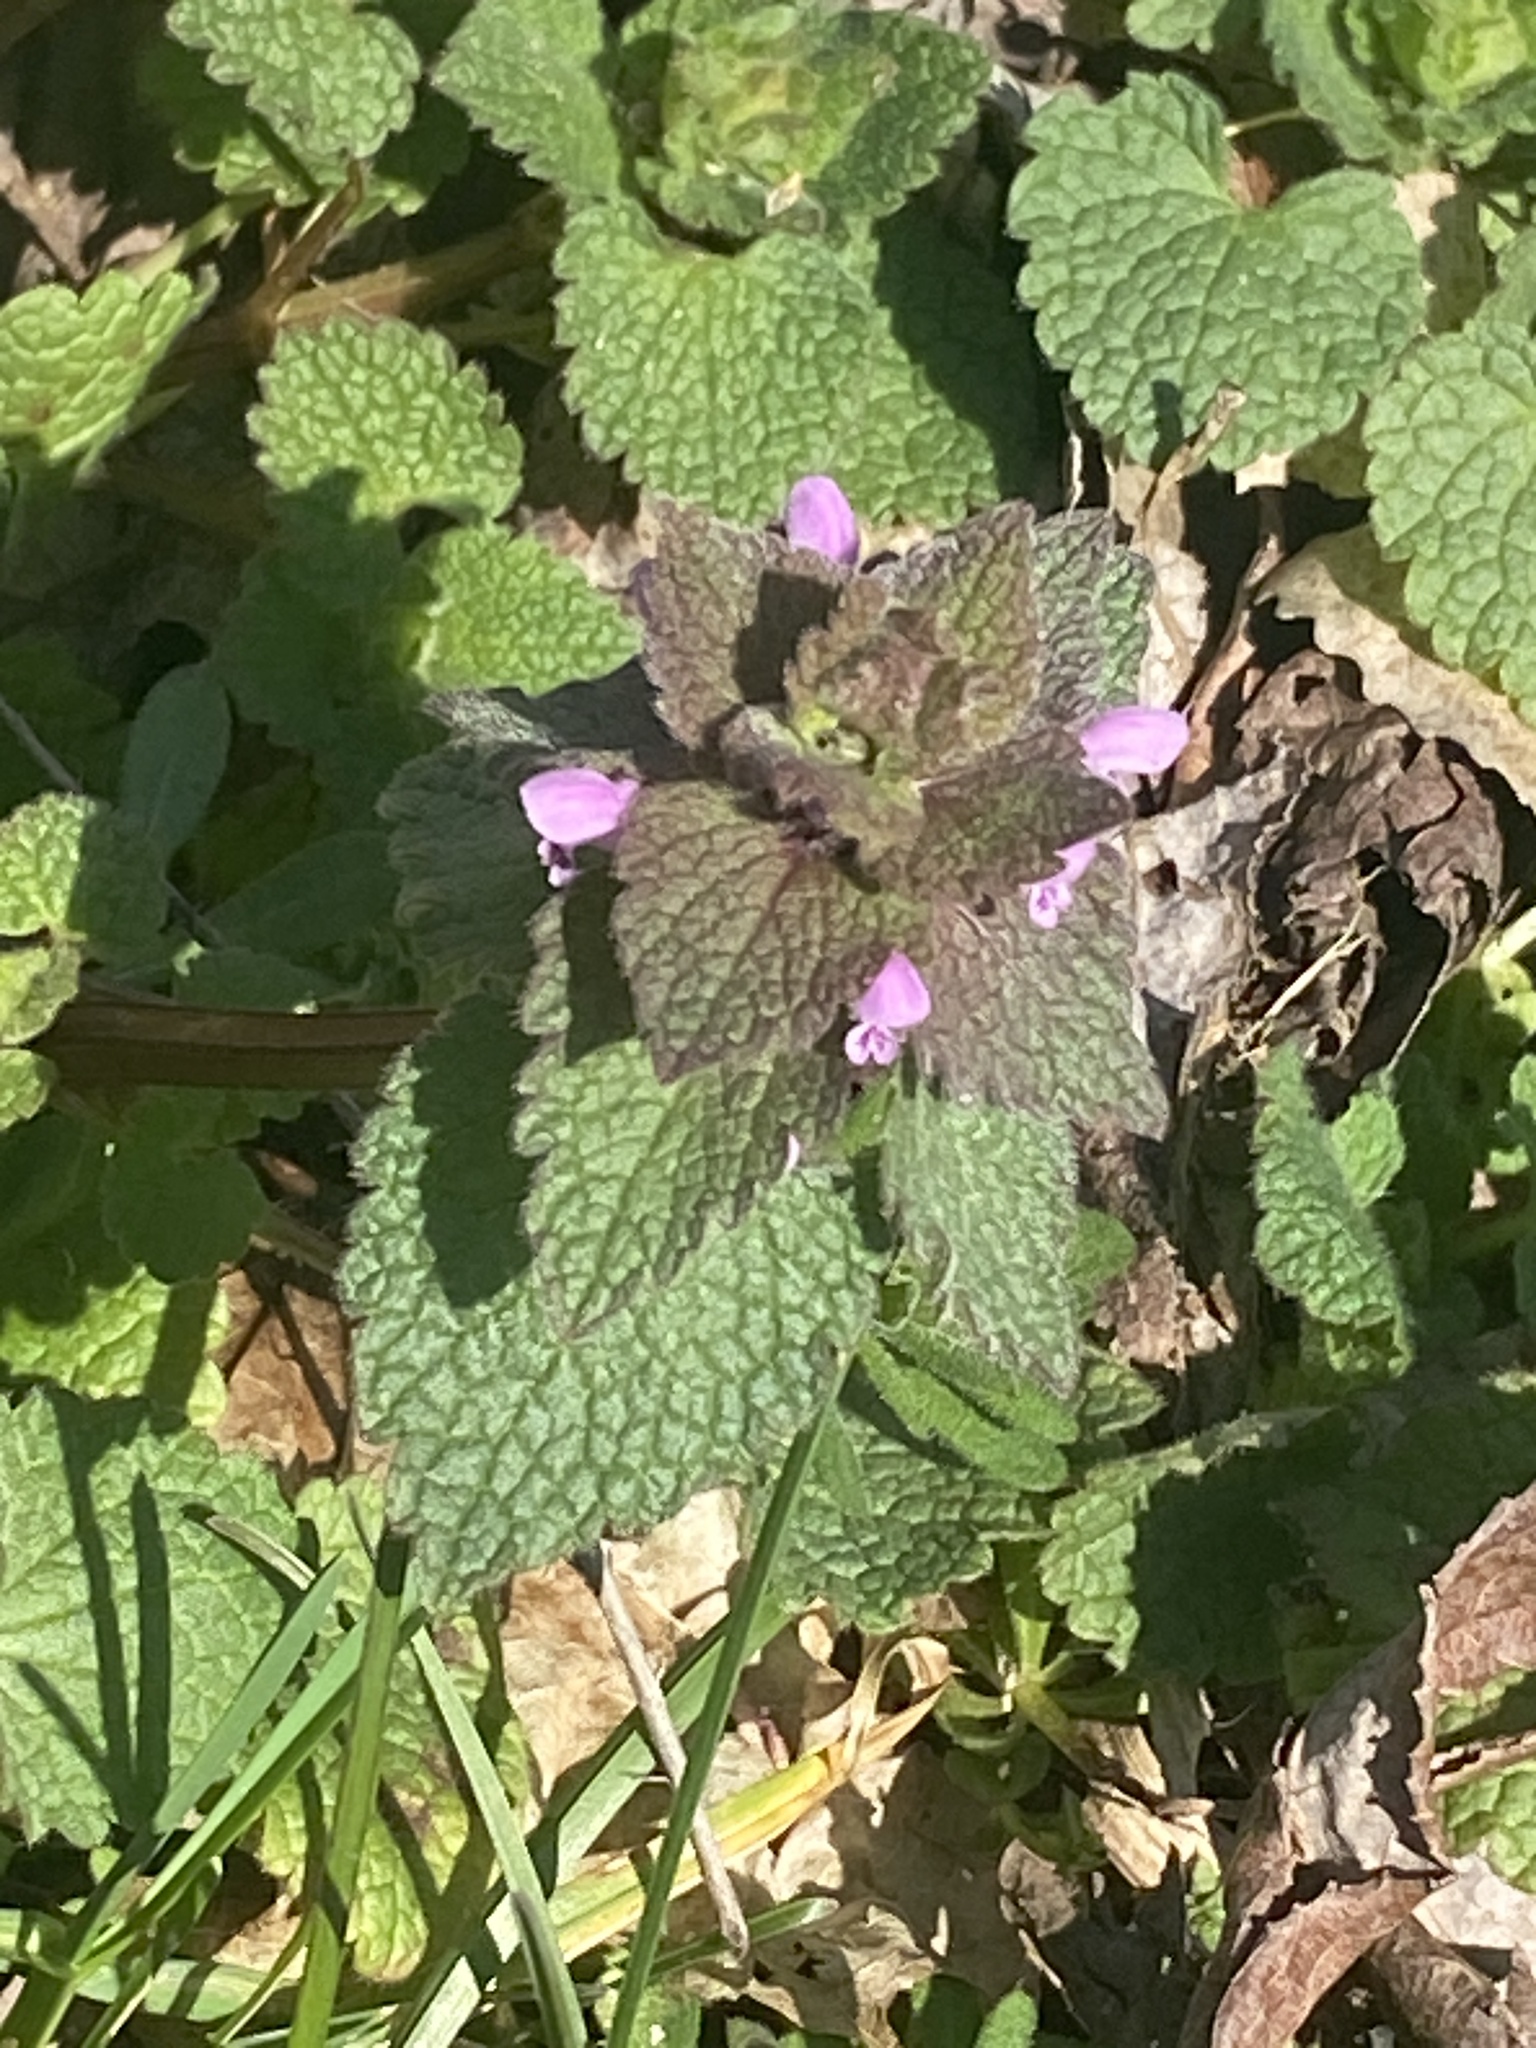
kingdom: Plantae
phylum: Tracheophyta
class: Magnoliopsida
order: Lamiales
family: Lamiaceae
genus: Lamium
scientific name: Lamium purpureum
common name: Red dead-nettle
